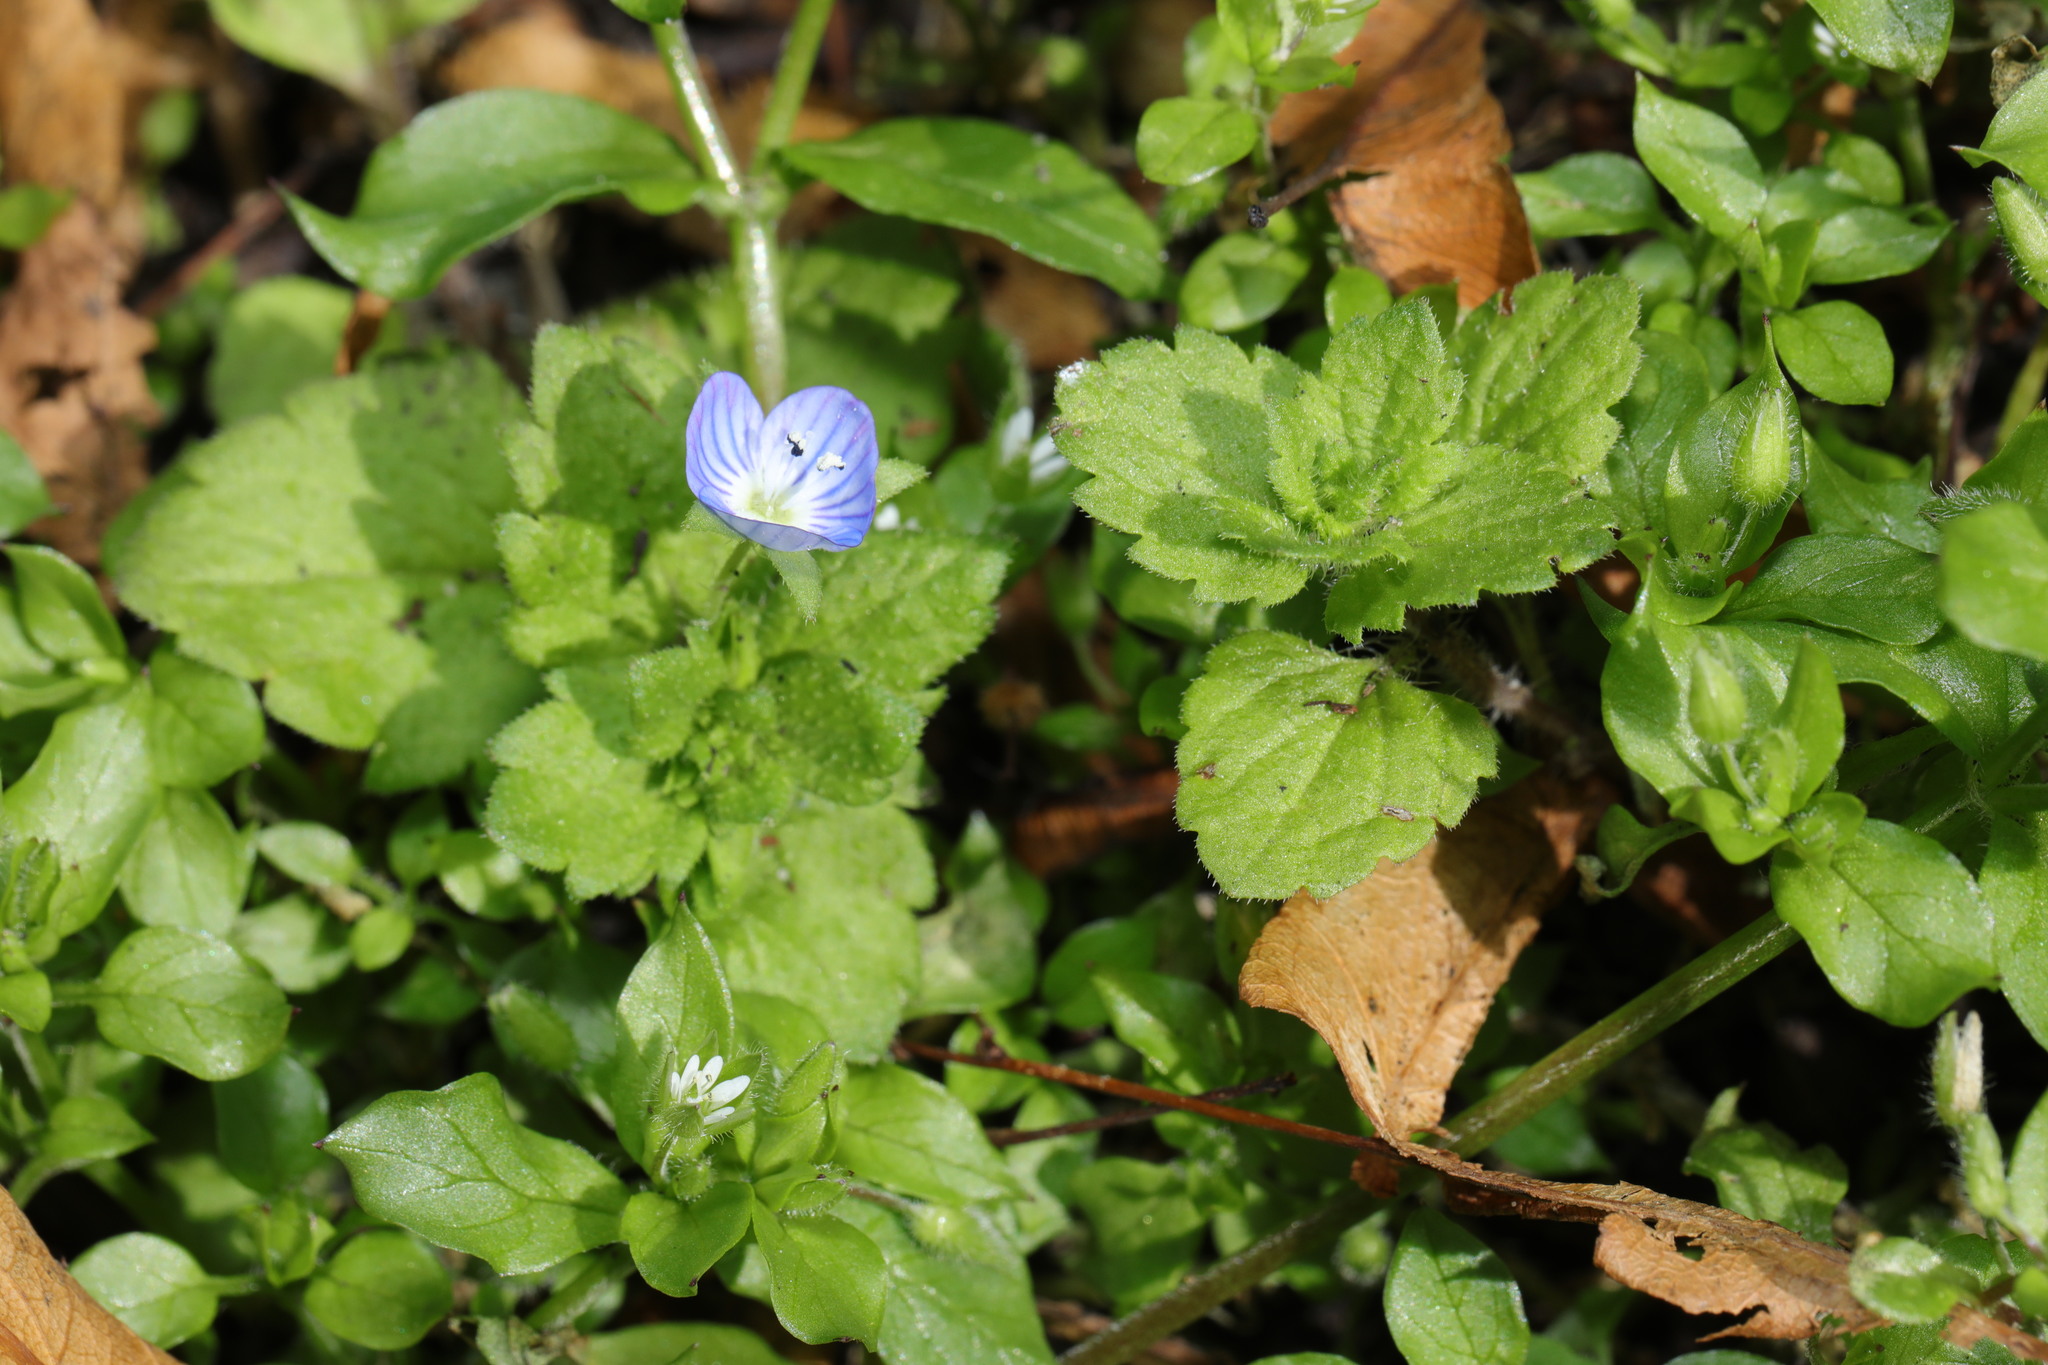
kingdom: Plantae
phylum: Tracheophyta
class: Magnoliopsida
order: Lamiales
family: Plantaginaceae
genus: Veronica
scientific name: Veronica persica
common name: Common field-speedwell
